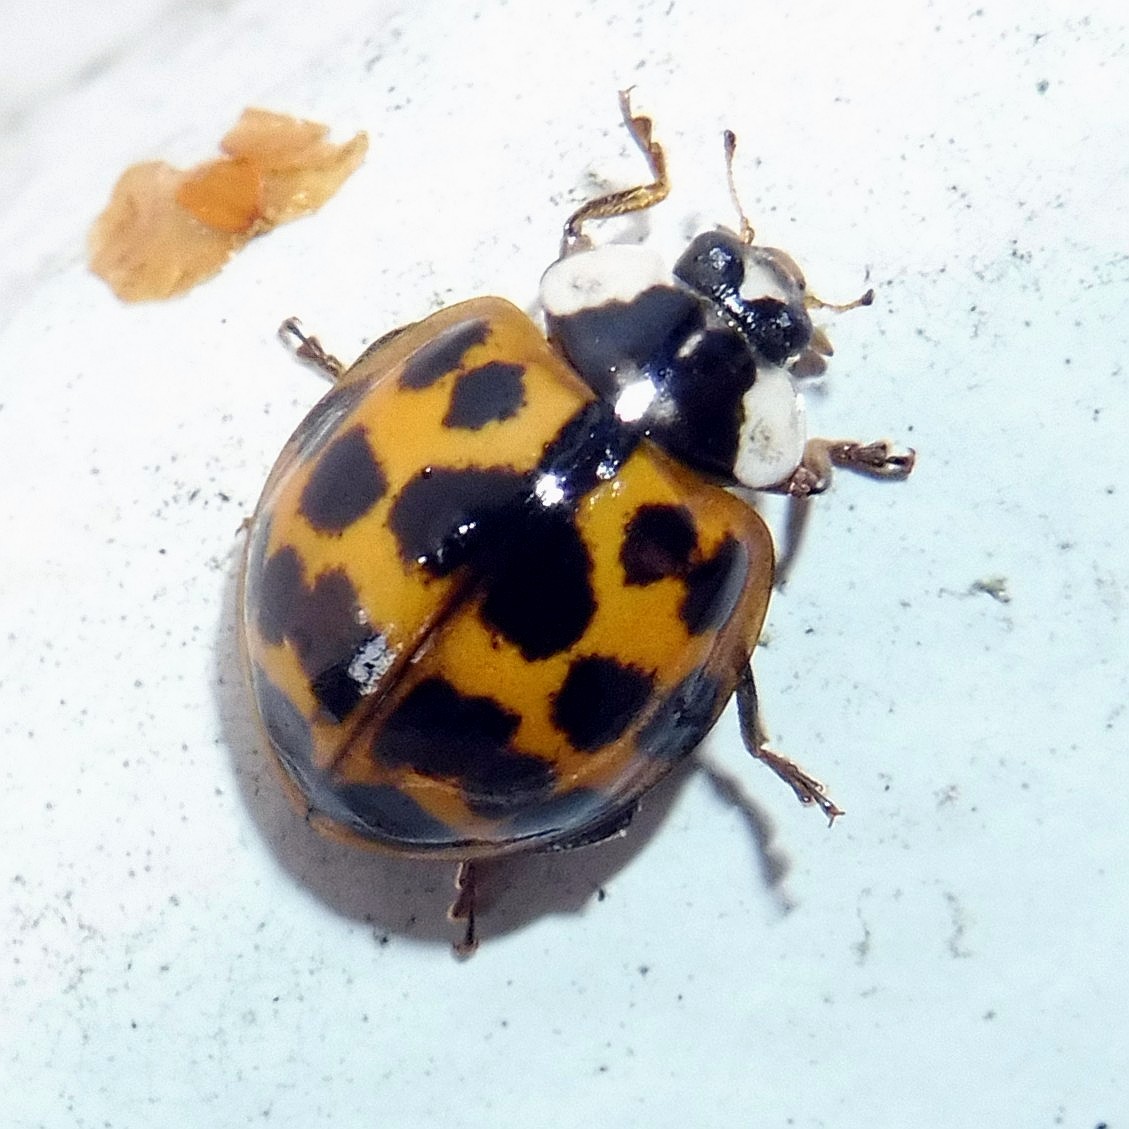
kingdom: Animalia
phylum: Arthropoda
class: Insecta
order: Coleoptera
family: Coccinellidae
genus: Harmonia
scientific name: Harmonia axyridis
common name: Harlequin ladybird
